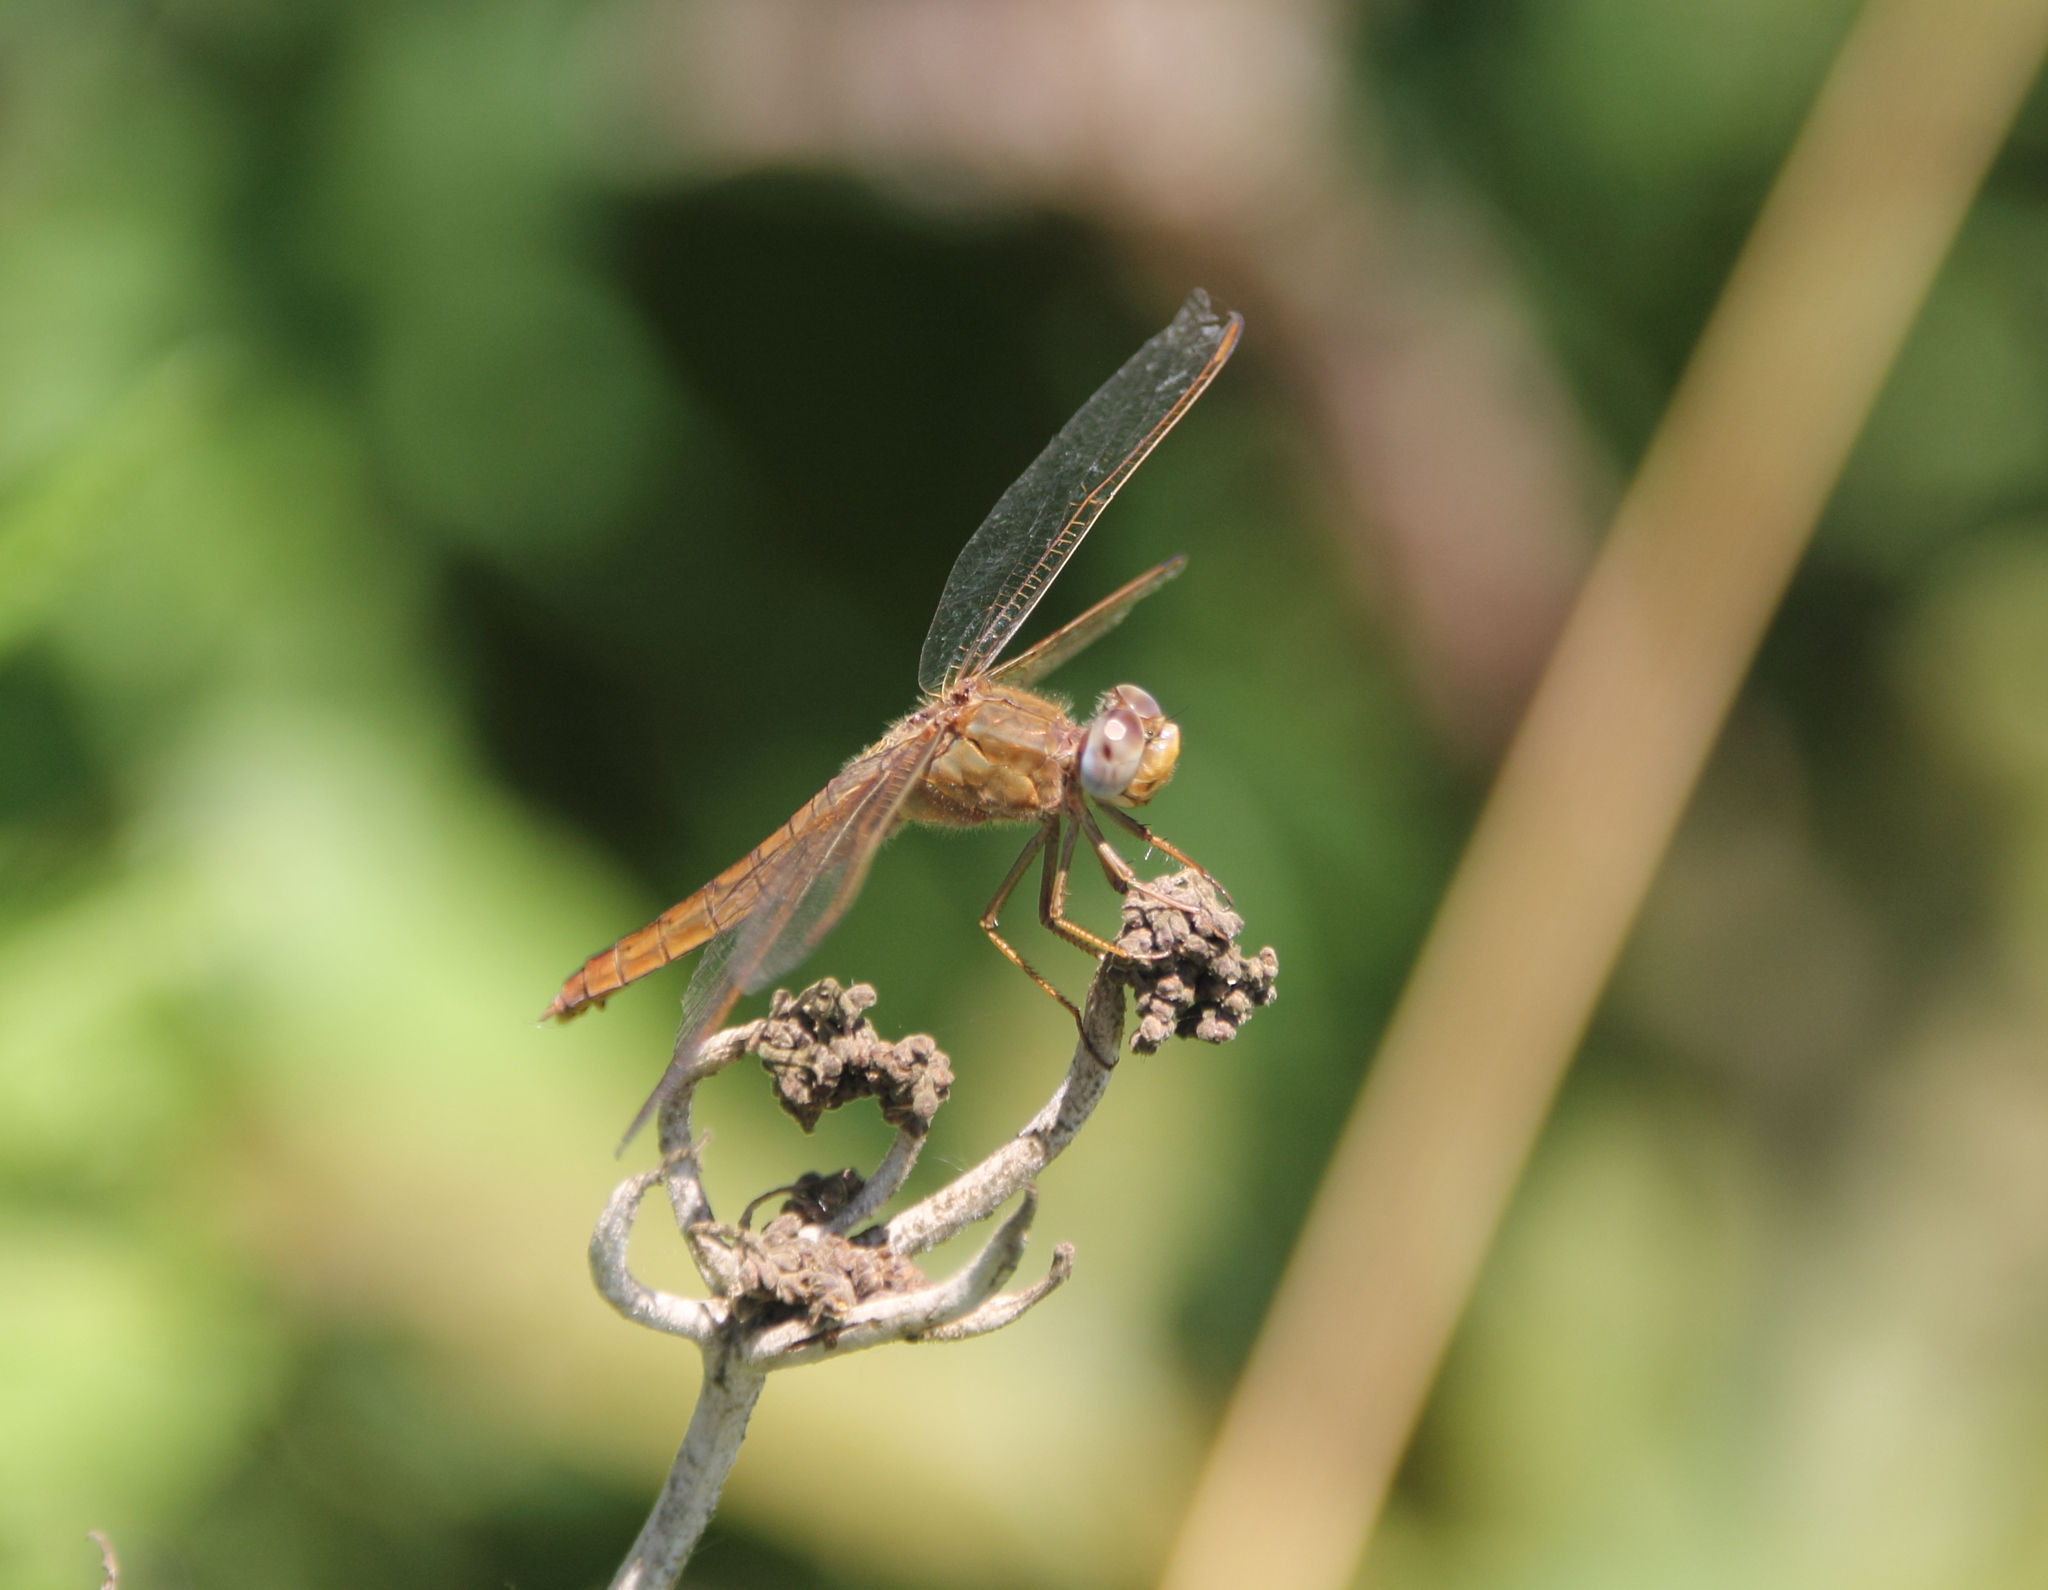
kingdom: Animalia
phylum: Arthropoda
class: Insecta
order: Odonata
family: Libellulidae
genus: Crocothemis
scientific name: Crocothemis erythraea
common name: Scarlet dragonfly
